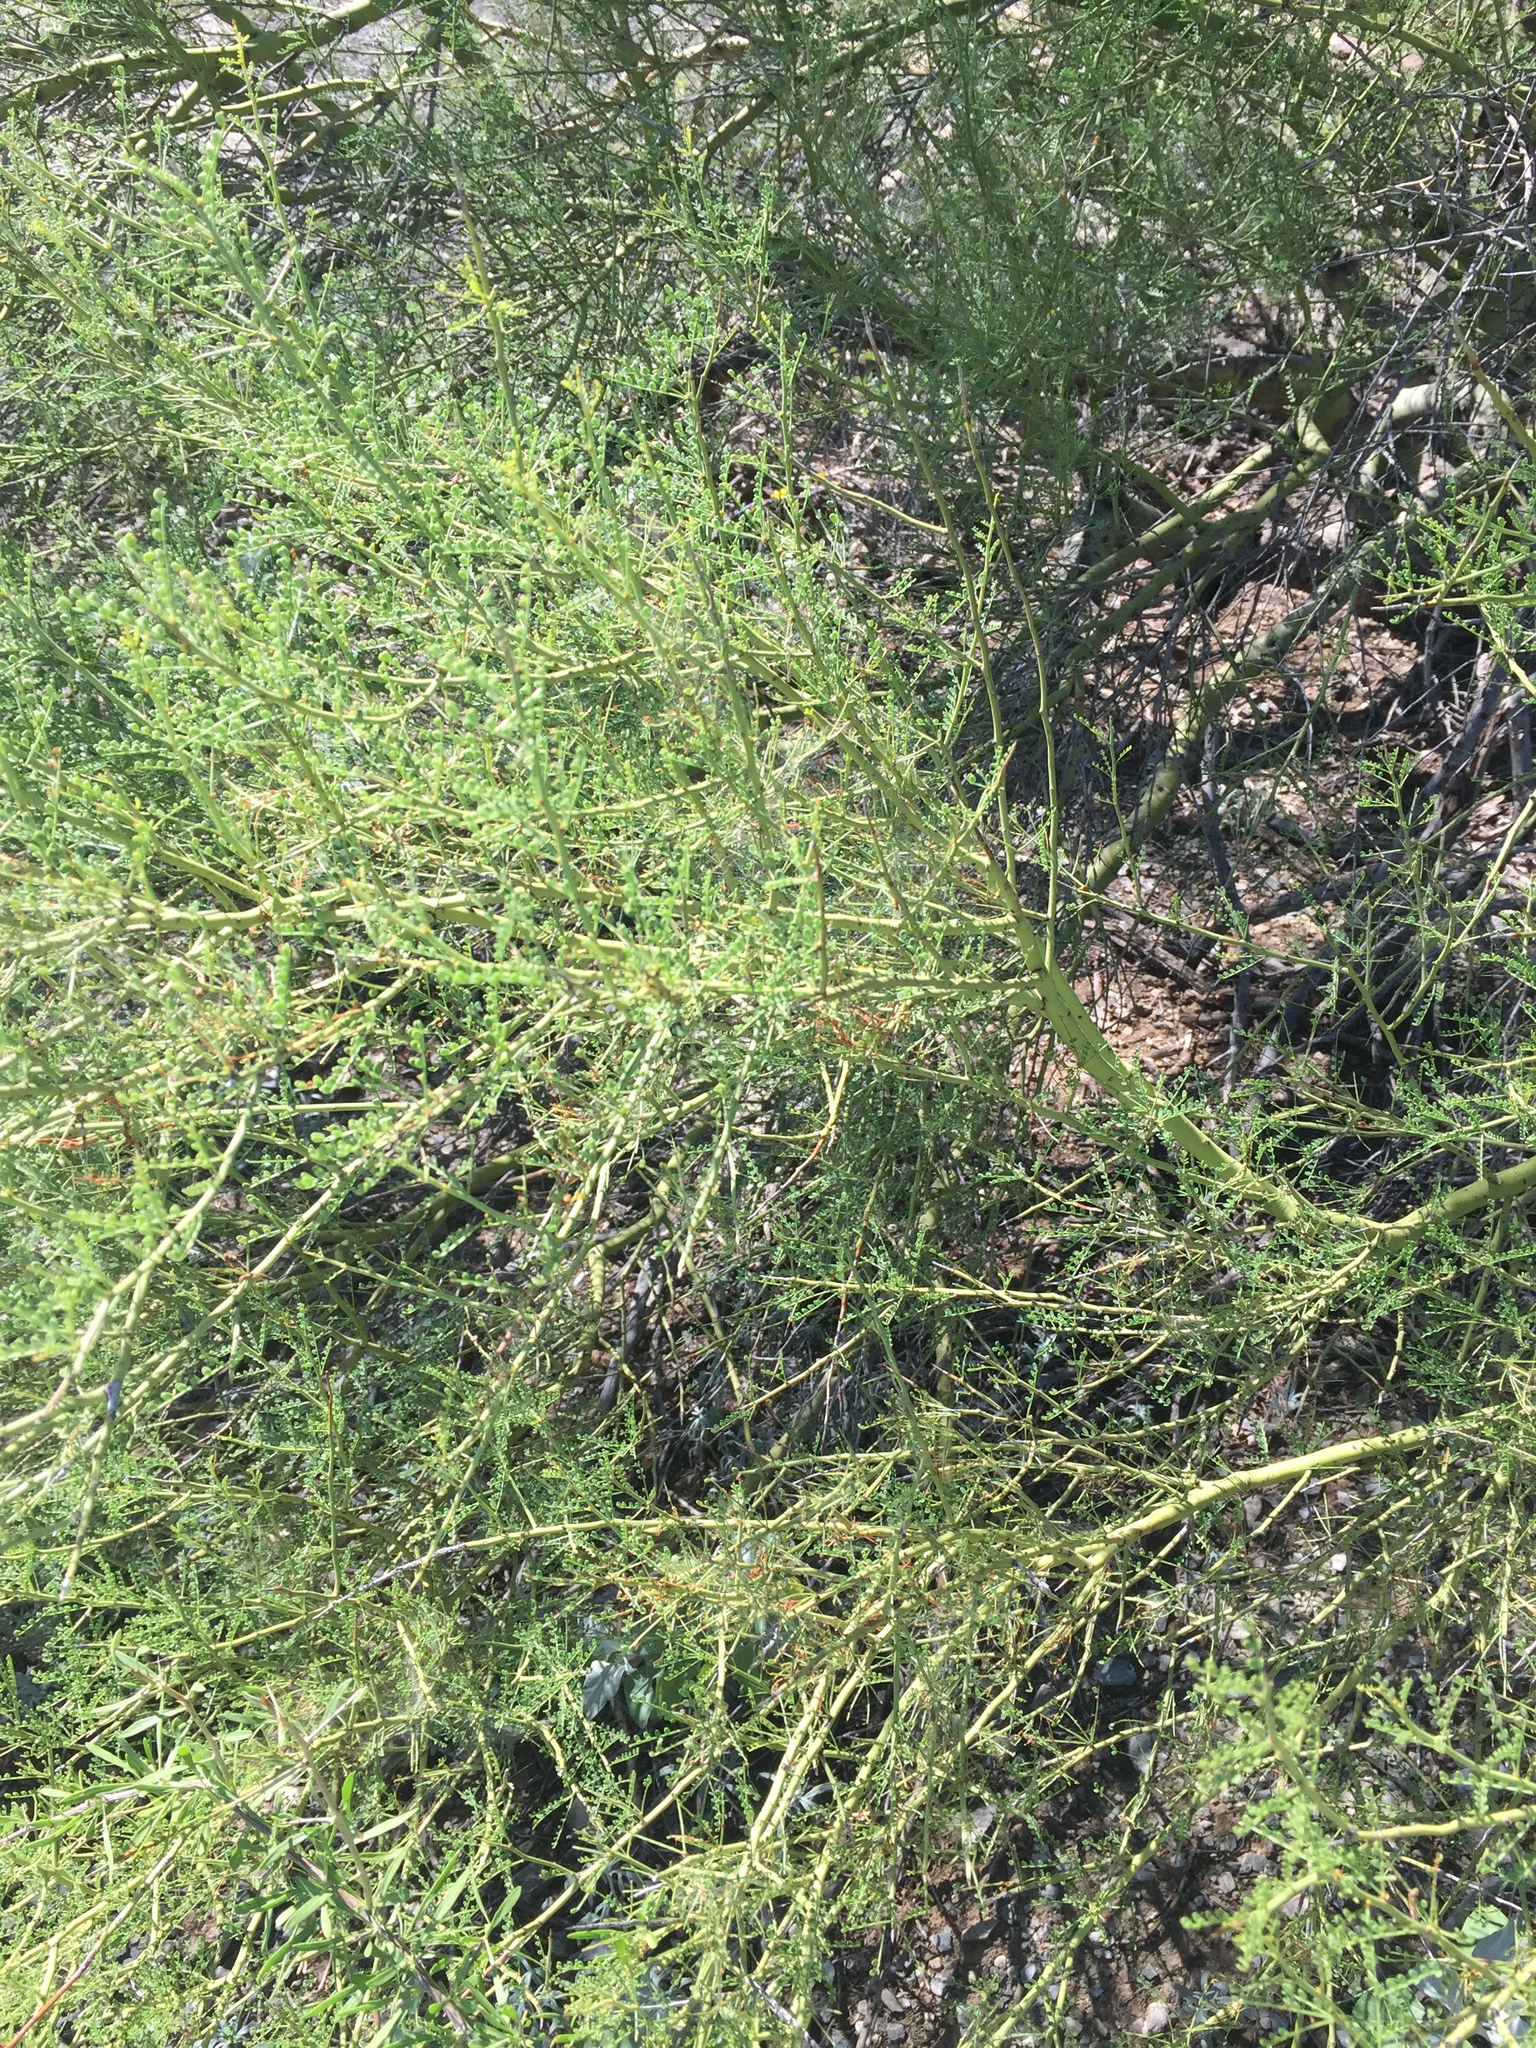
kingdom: Plantae
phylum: Tracheophyta
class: Magnoliopsida
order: Fabales
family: Fabaceae
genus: Parkinsonia
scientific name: Parkinsonia microphylla
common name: Yellow paloverde
